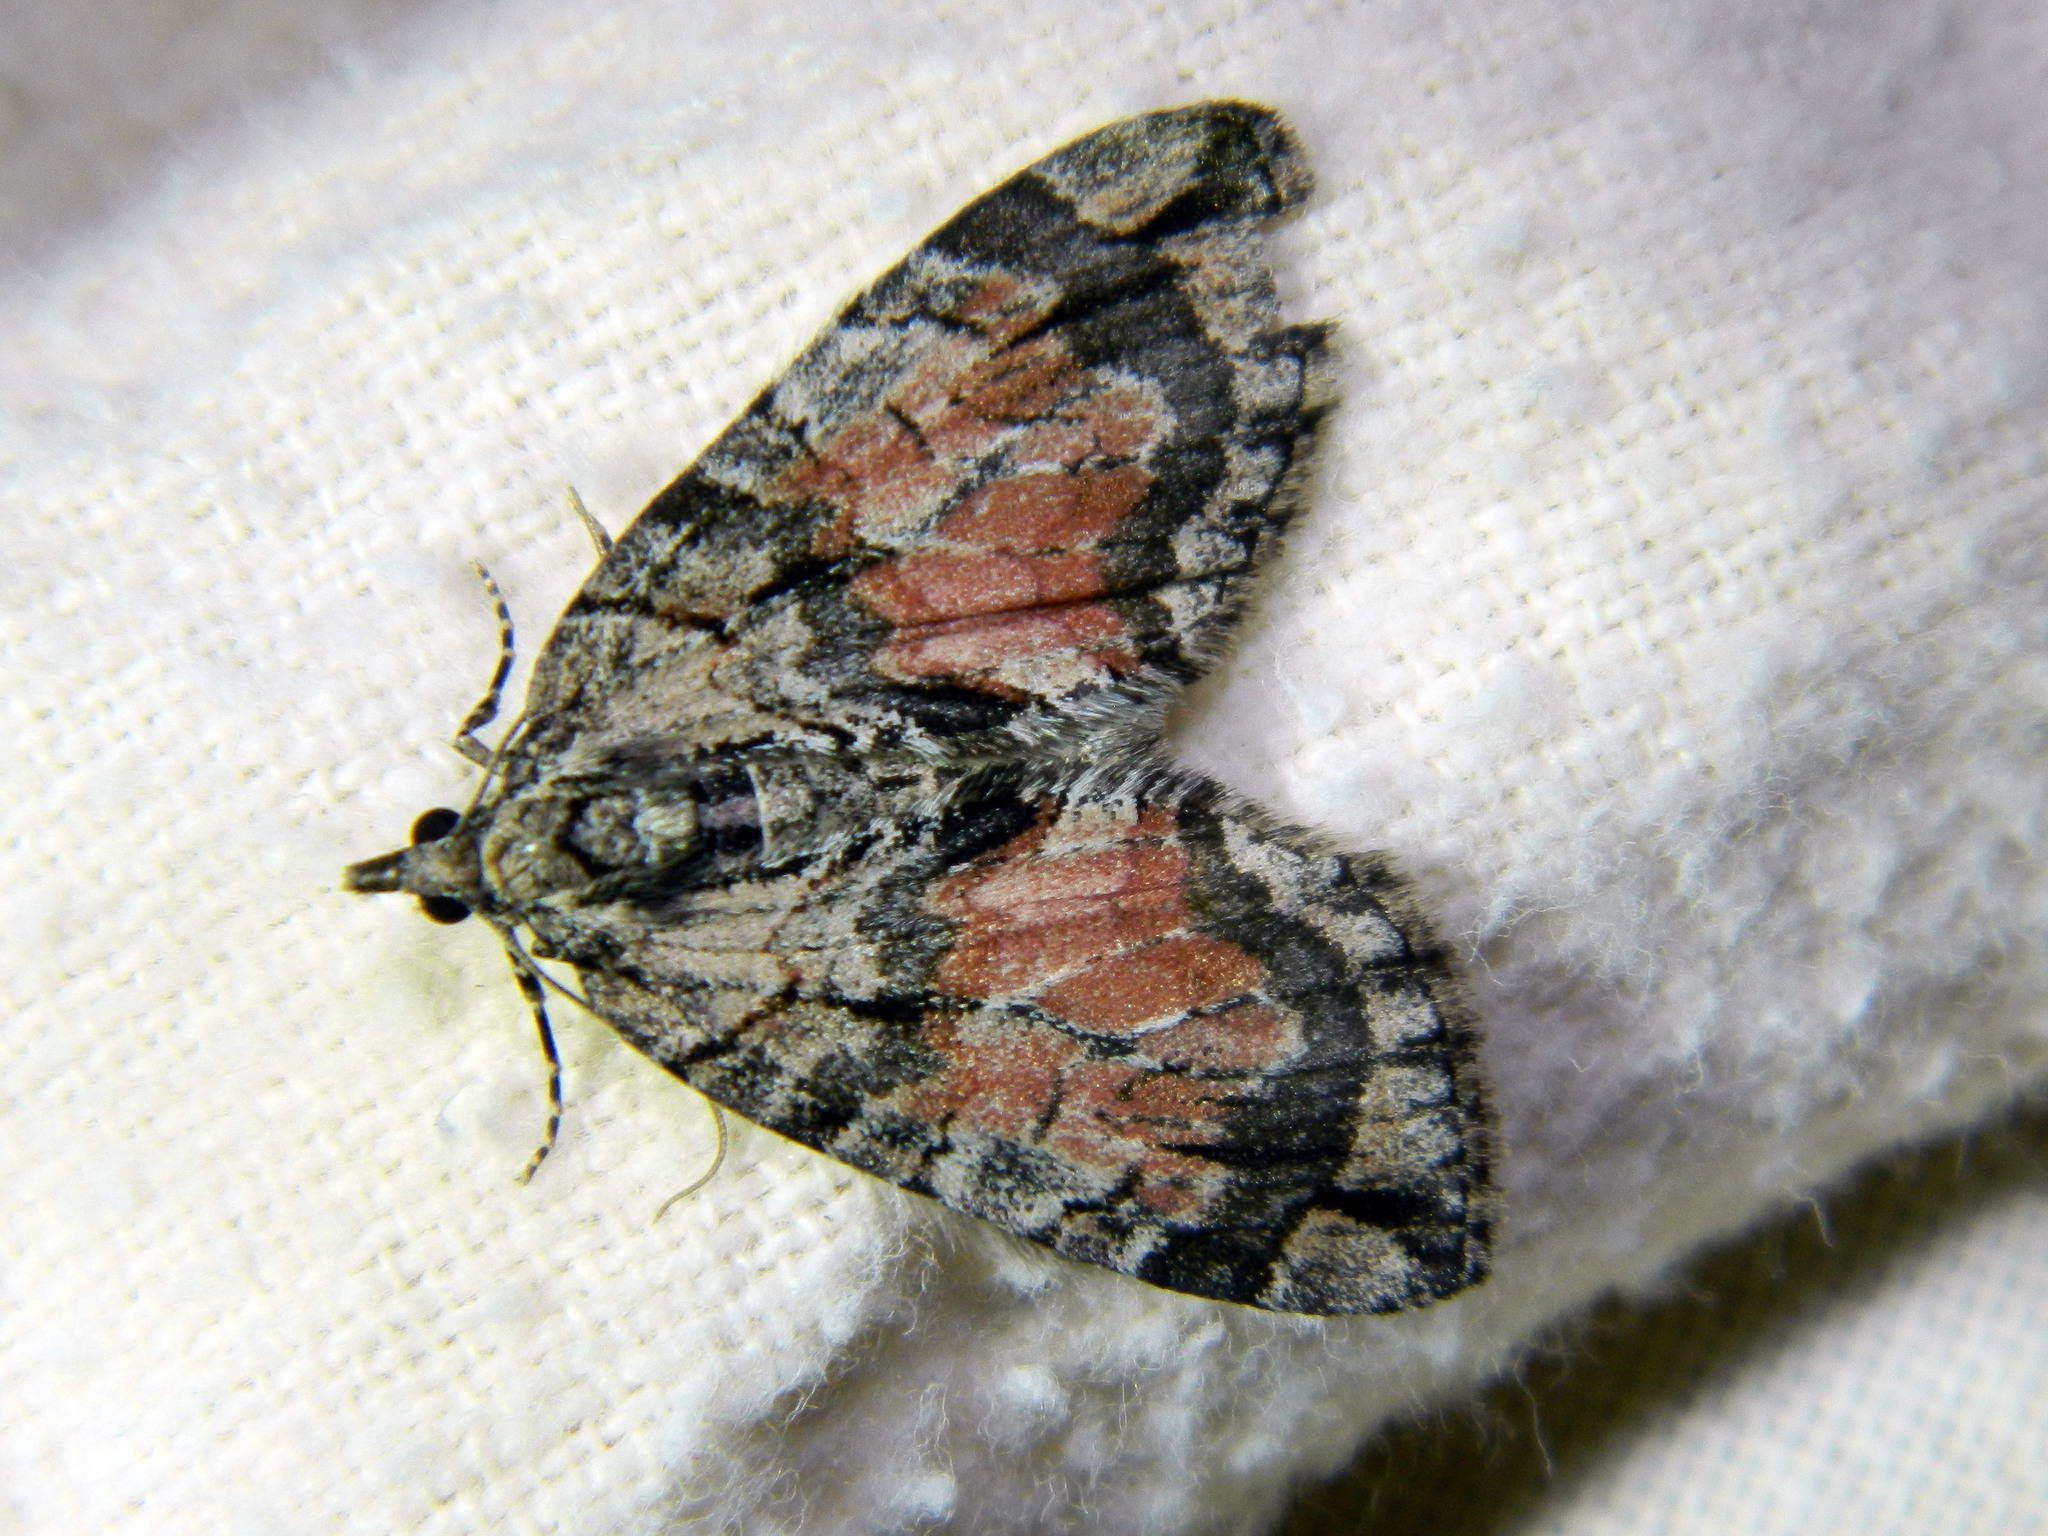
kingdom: Animalia
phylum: Arthropoda
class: Insecta
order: Lepidoptera
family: Geometridae
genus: Hydriomena
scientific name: Hydriomena perfracta
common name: Shattered hydriomena moth
